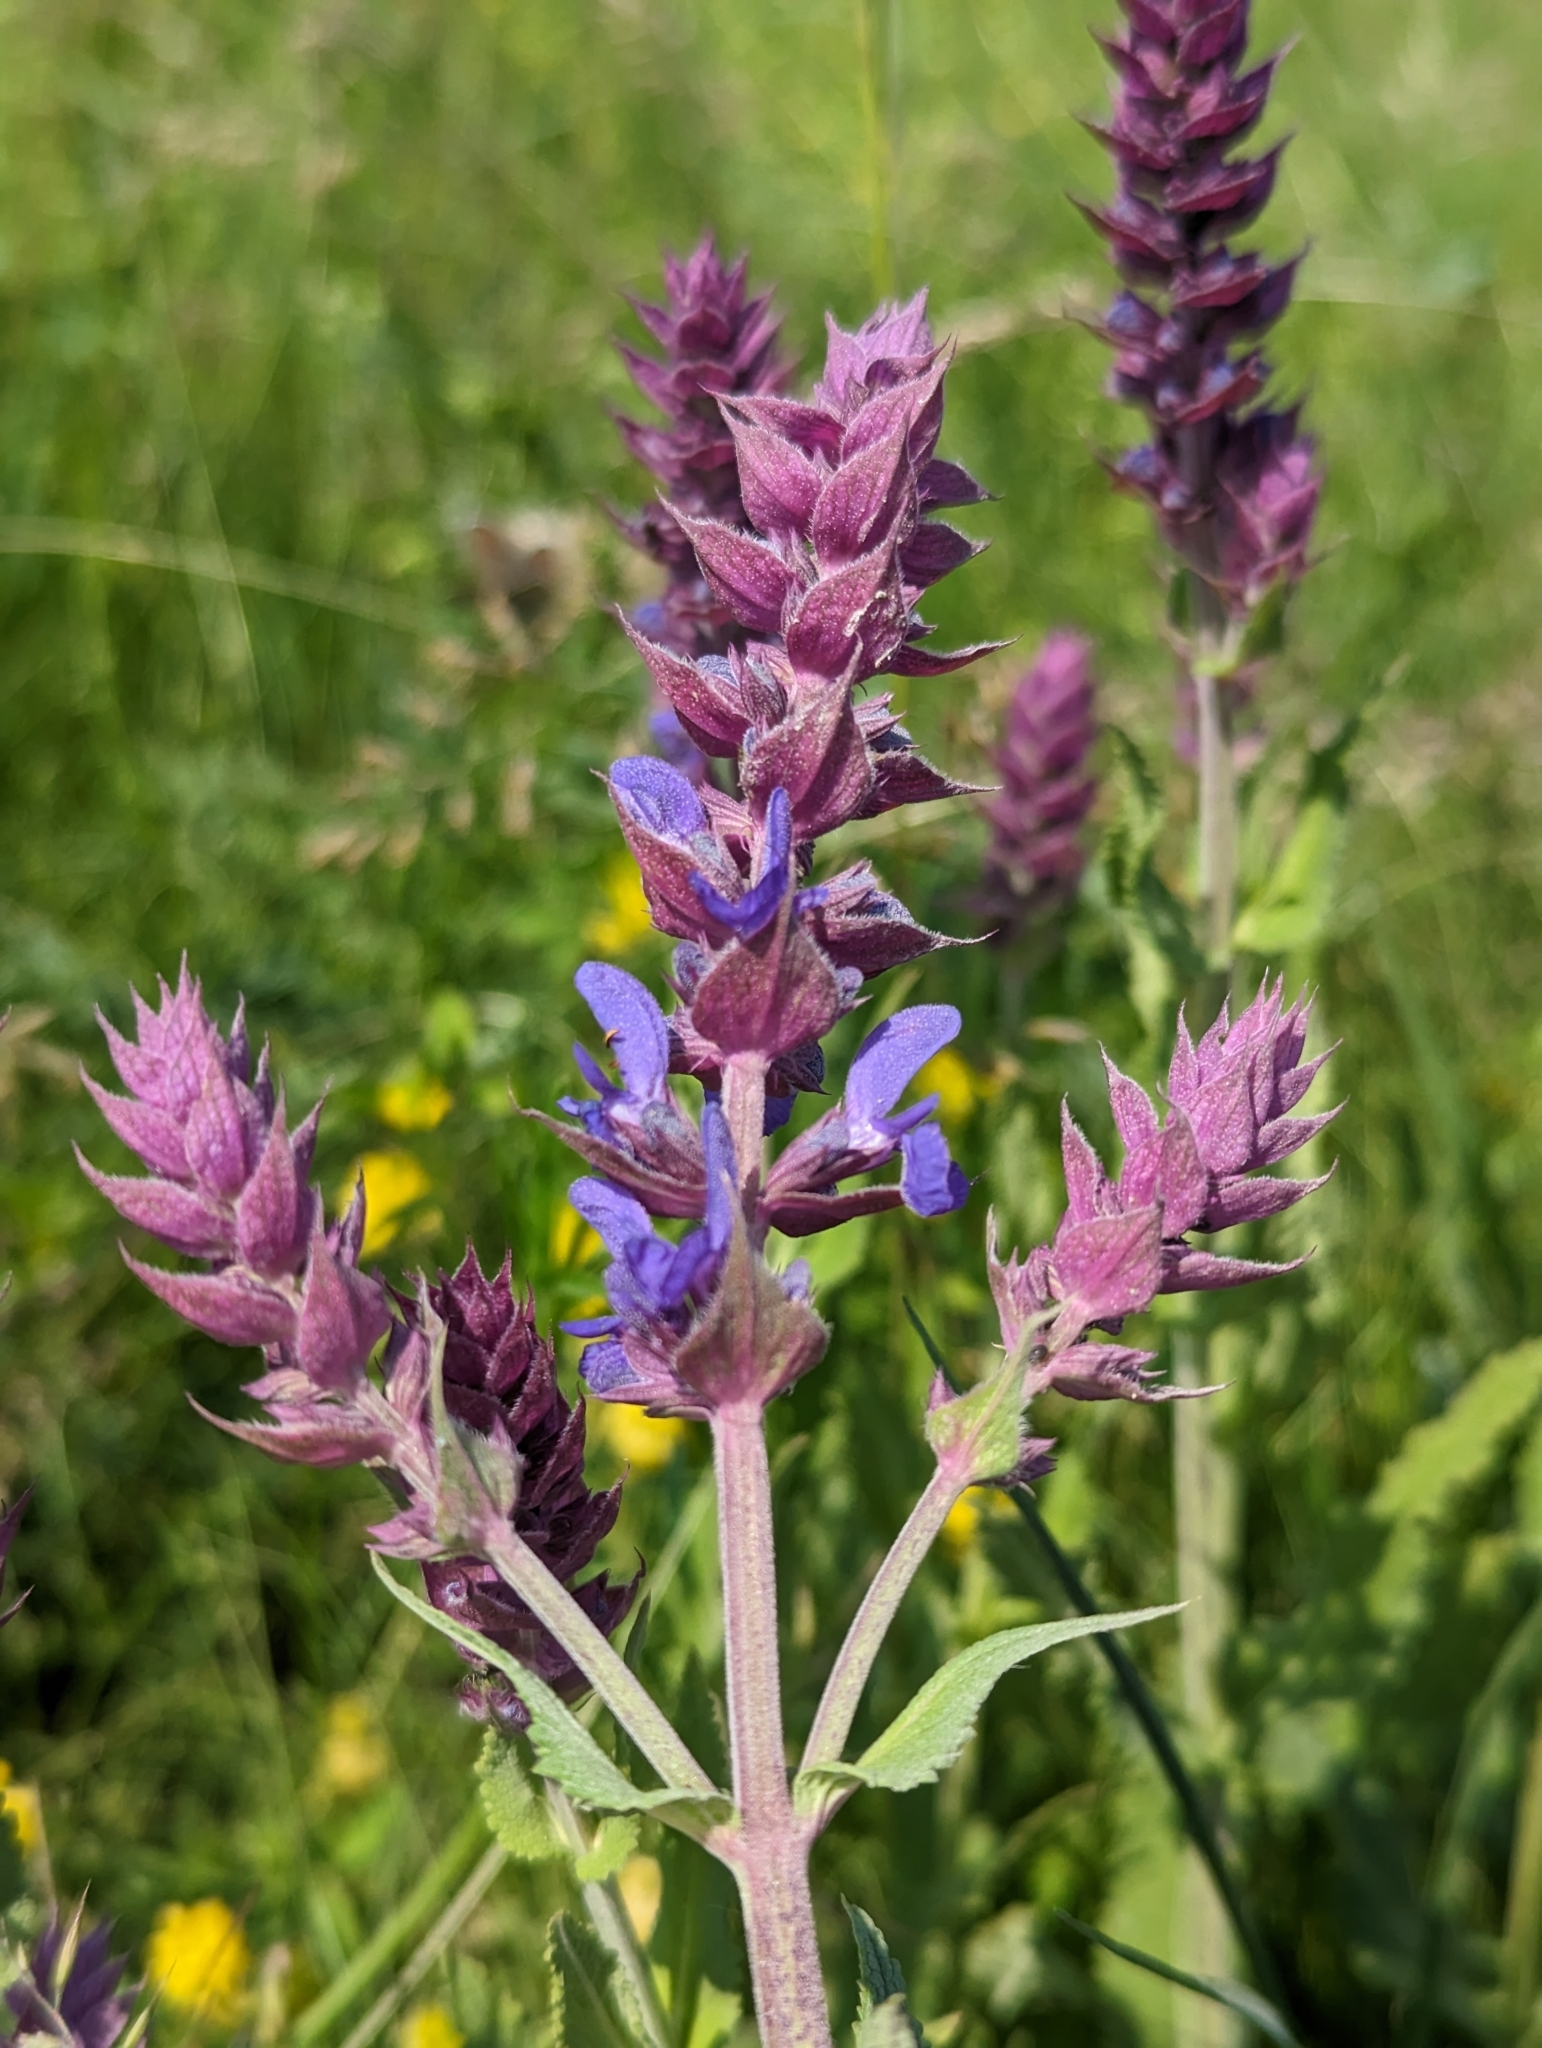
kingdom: Plantae
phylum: Tracheophyta
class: Magnoliopsida
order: Lamiales
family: Lamiaceae
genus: Salvia
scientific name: Salvia nemorosa
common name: Balkan clary
